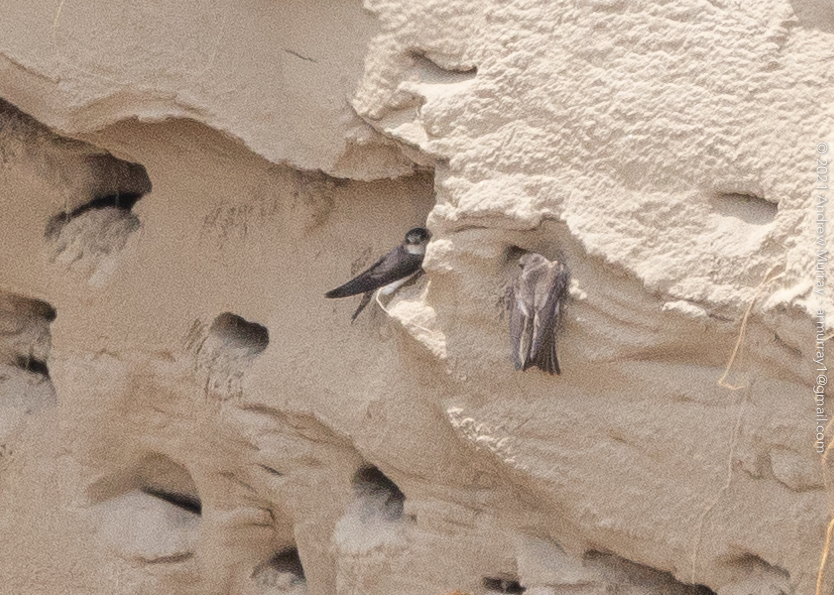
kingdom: Animalia
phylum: Chordata
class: Aves
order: Passeriformes
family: Hirundinidae
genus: Riparia
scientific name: Riparia riparia
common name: Sand martin
